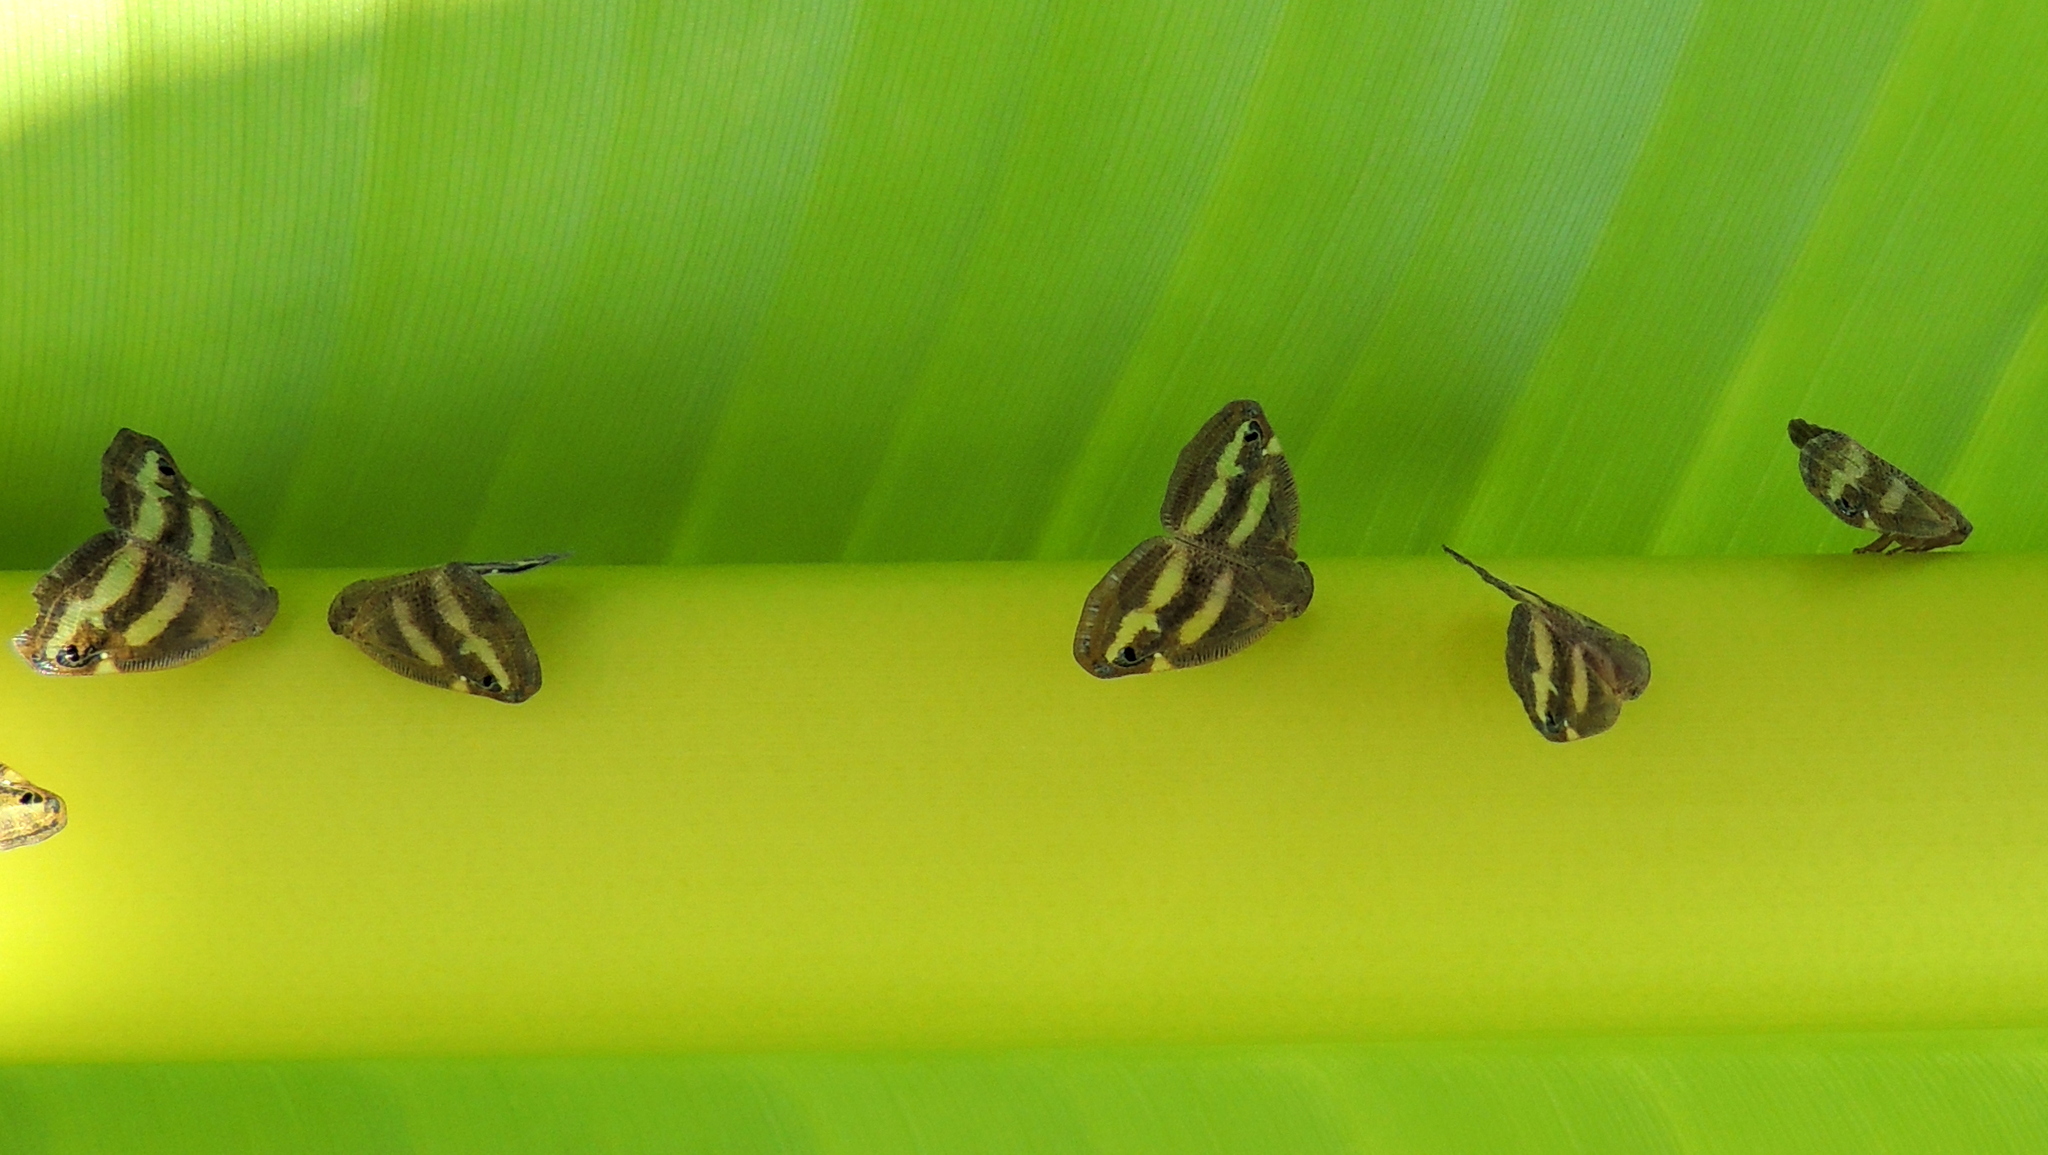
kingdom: Animalia
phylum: Arthropoda
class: Insecta
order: Hemiptera
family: Ricaniidae
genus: Orosanga
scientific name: Orosanga japonica
